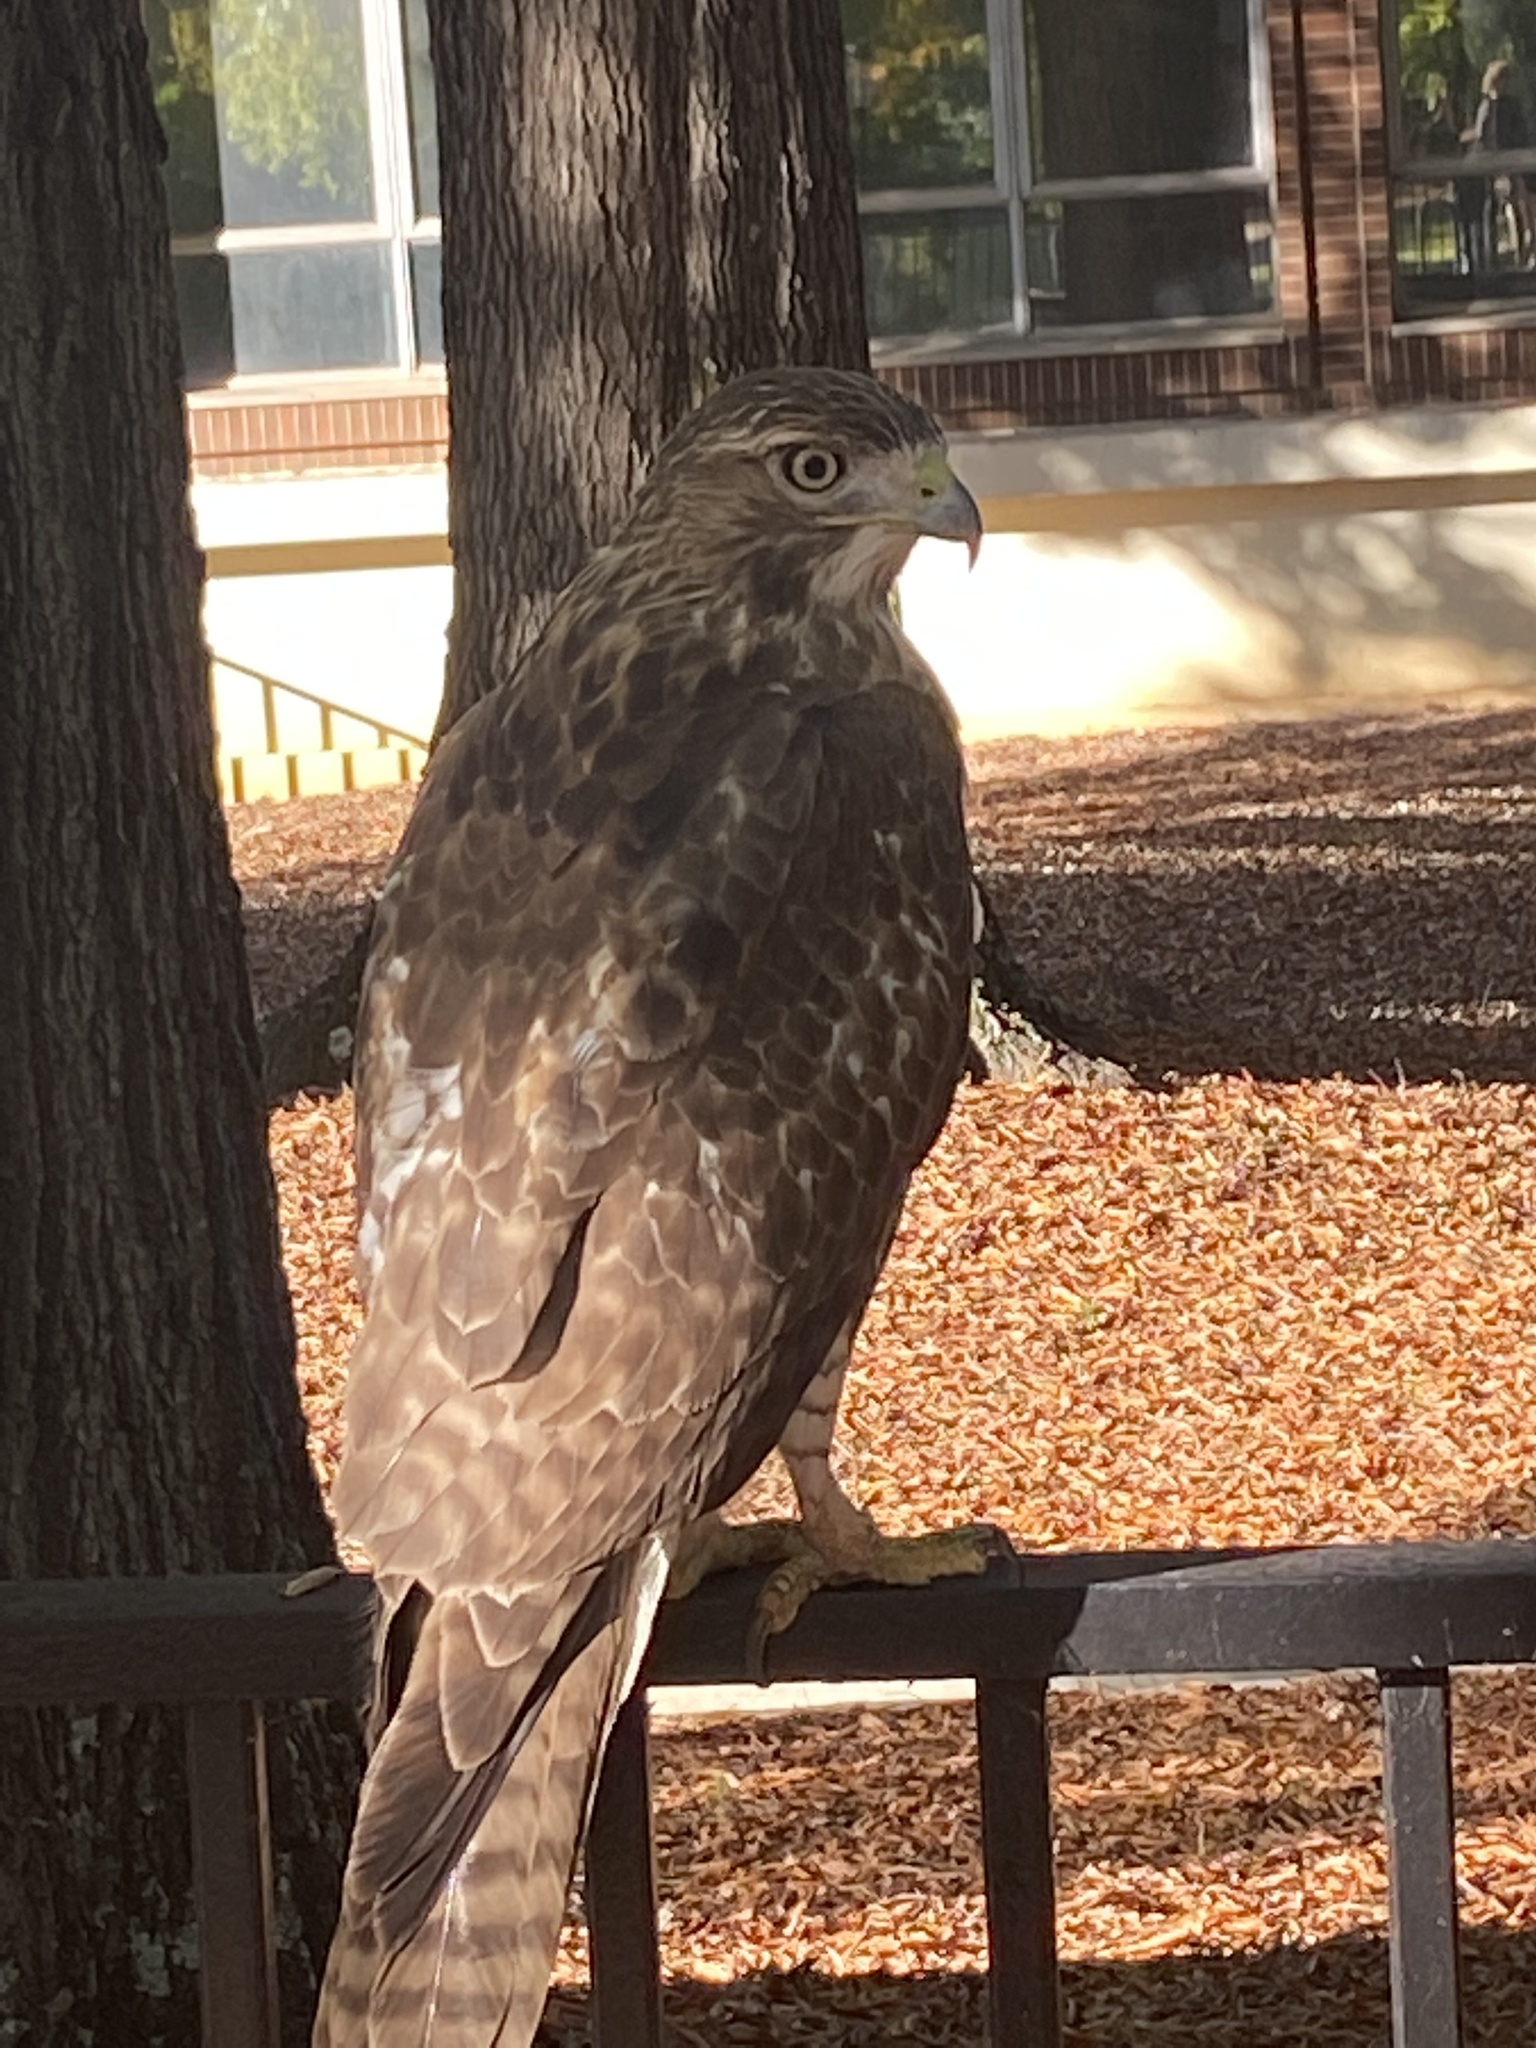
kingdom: Animalia
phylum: Chordata
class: Aves
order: Accipitriformes
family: Accipitridae
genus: Buteo
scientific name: Buteo jamaicensis
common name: Red-tailed hawk
